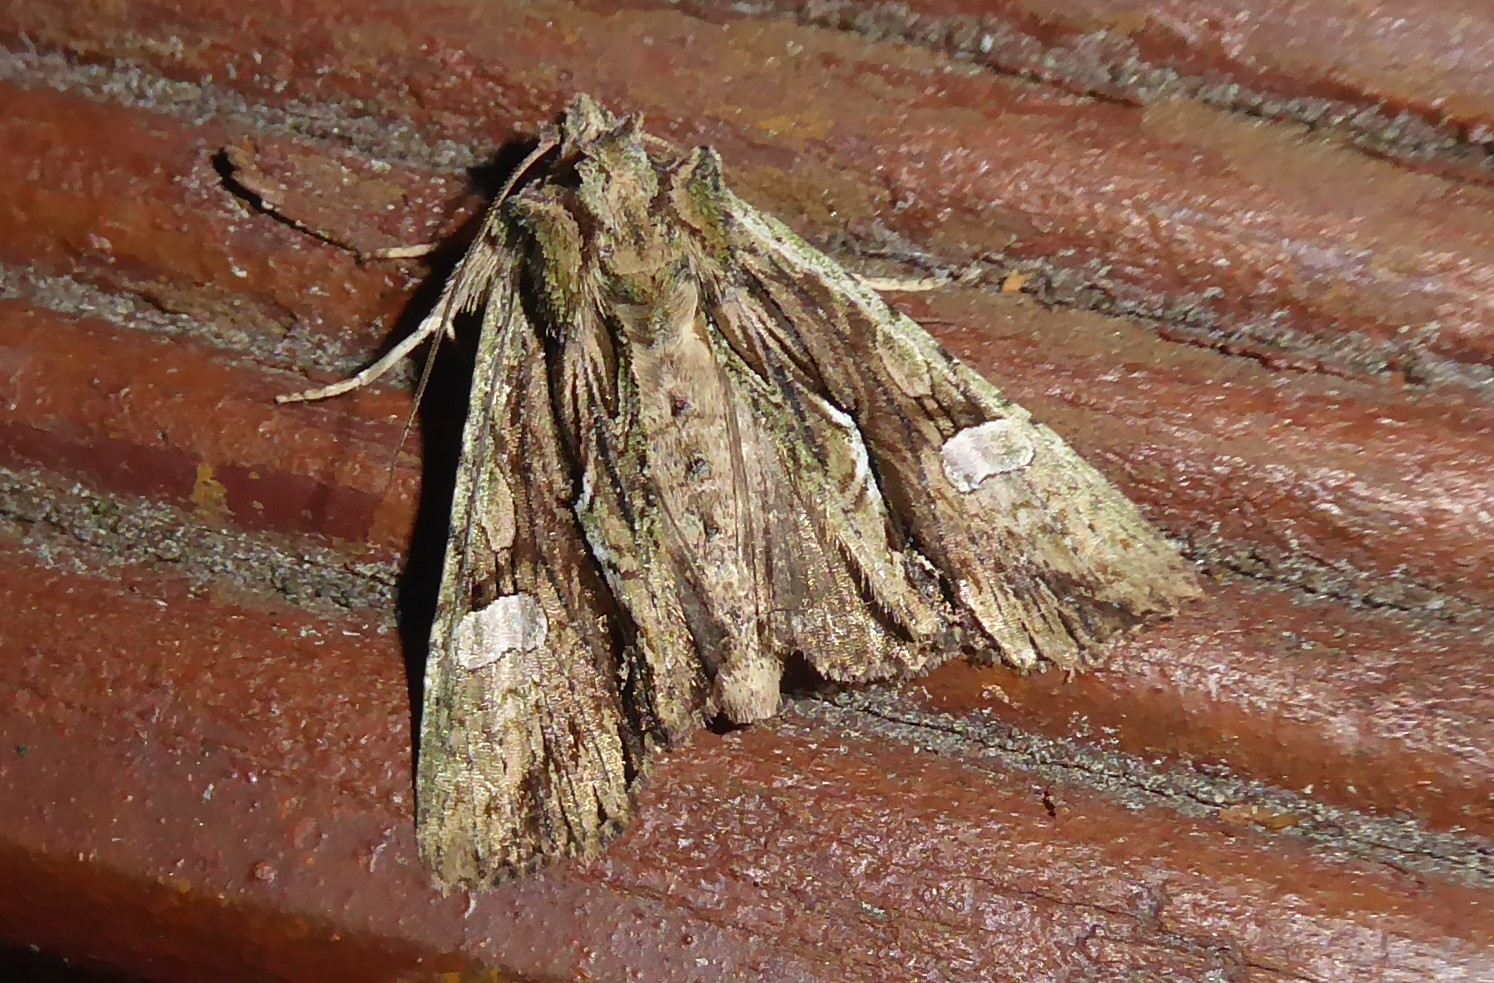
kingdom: Animalia
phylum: Arthropoda
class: Insecta
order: Lepidoptera
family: Noctuidae
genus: Meterana
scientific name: Meterana decorata
